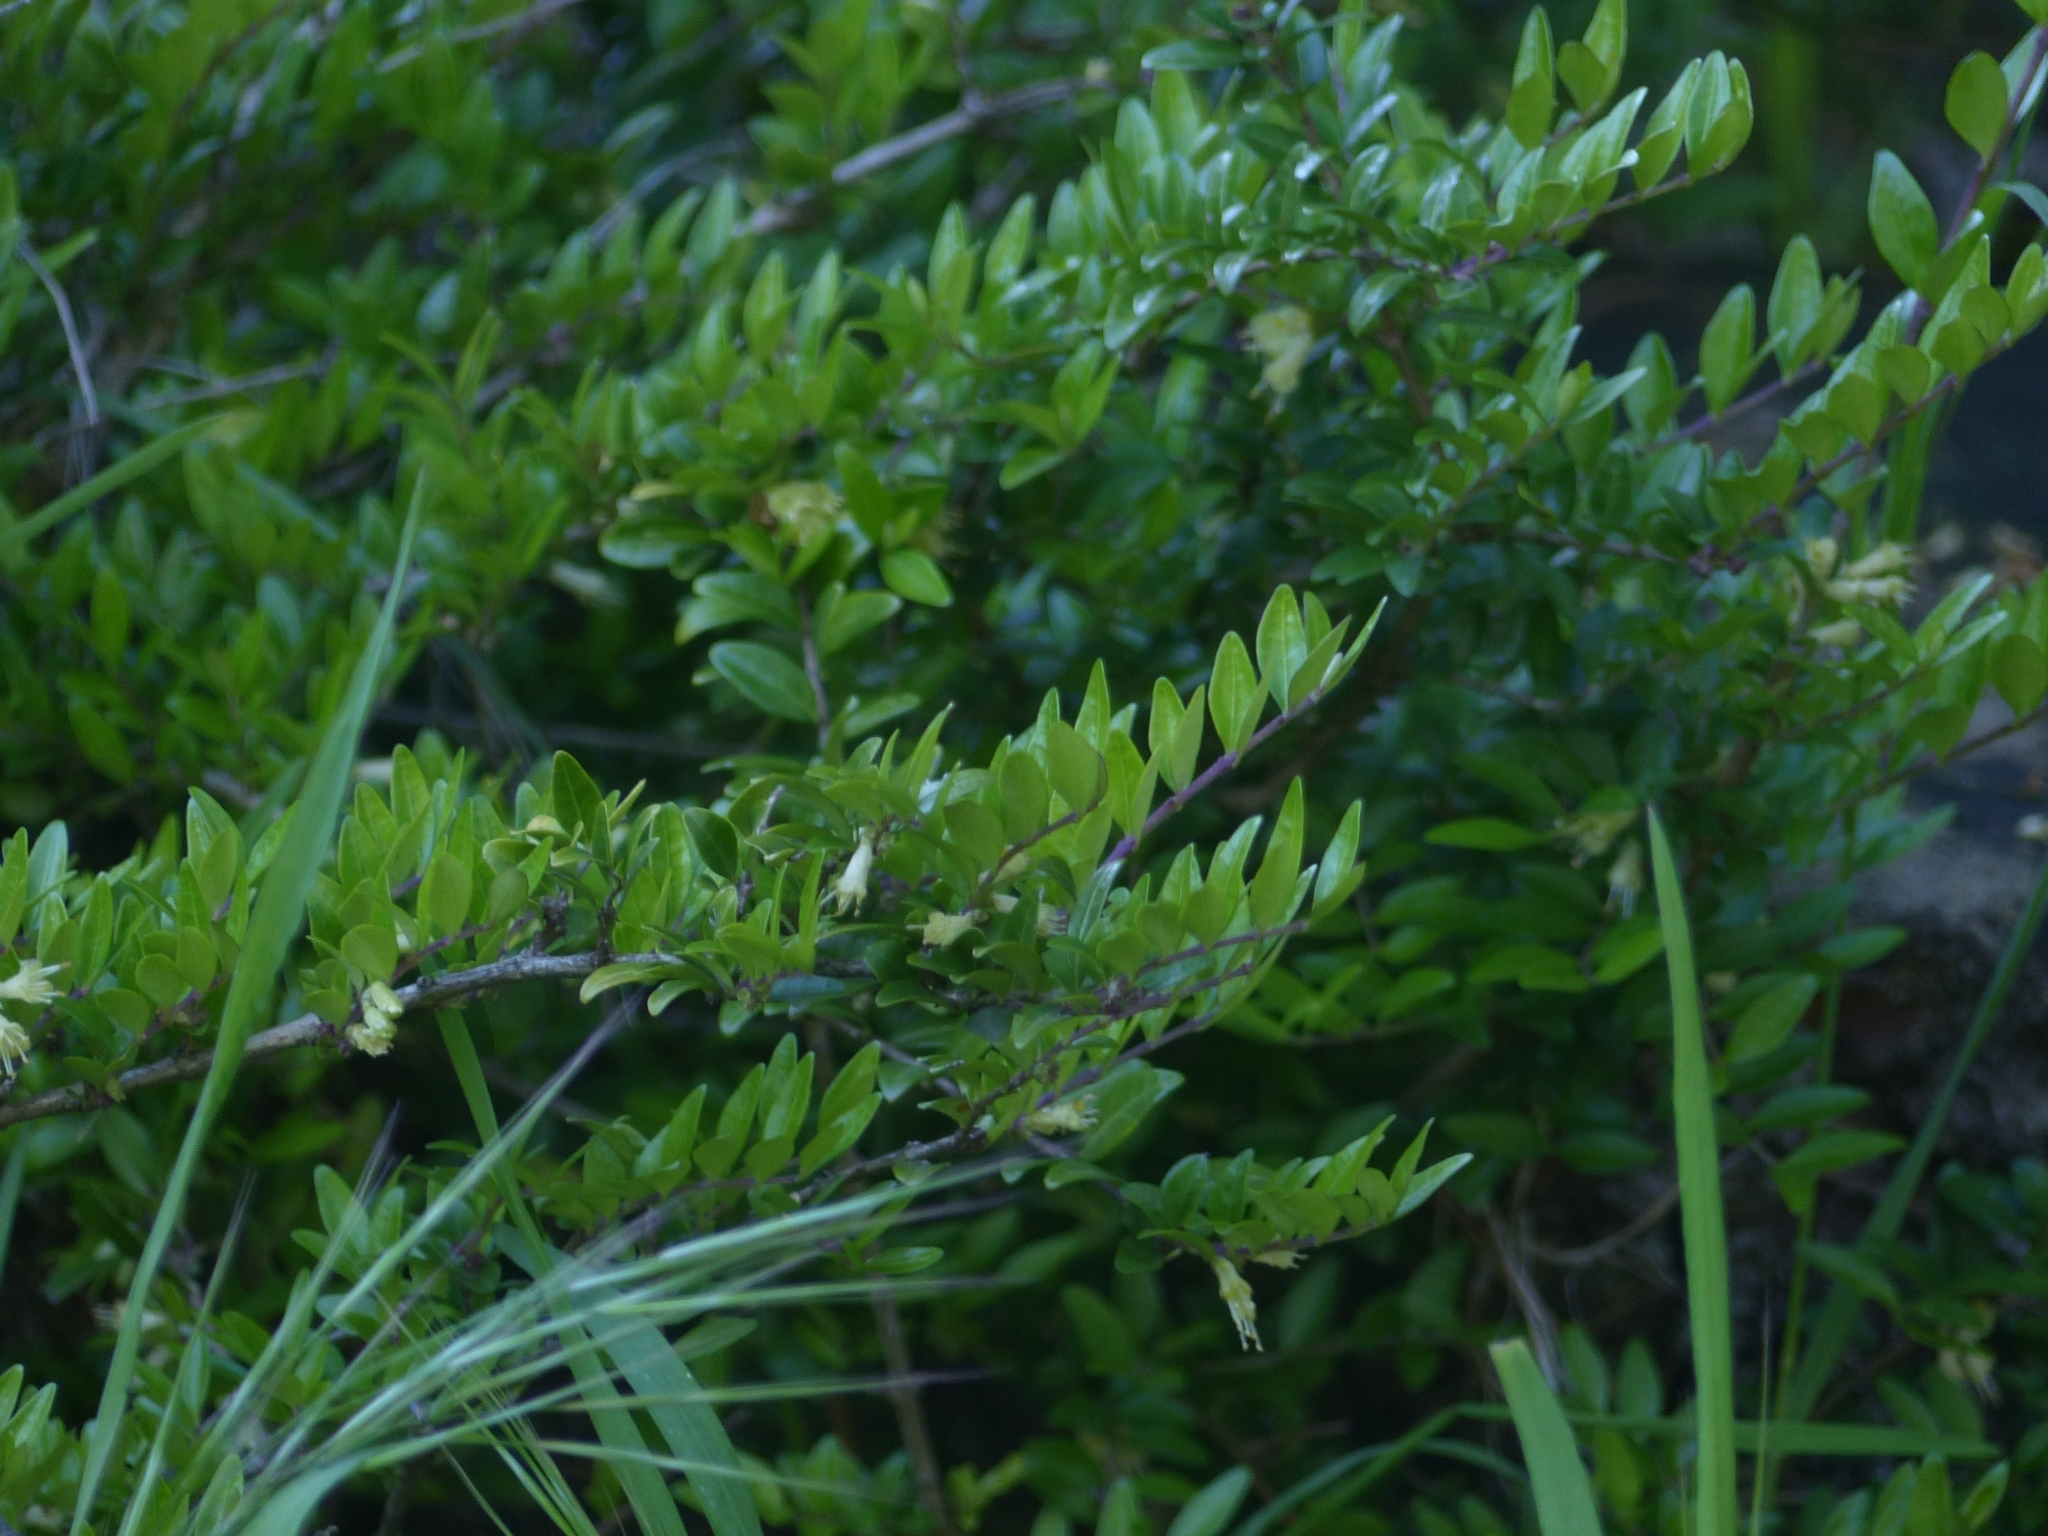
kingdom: Plantae
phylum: Tracheophyta
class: Magnoliopsida
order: Dipsacales
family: Caprifoliaceae
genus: Lonicera
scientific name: Lonicera ligustrina
